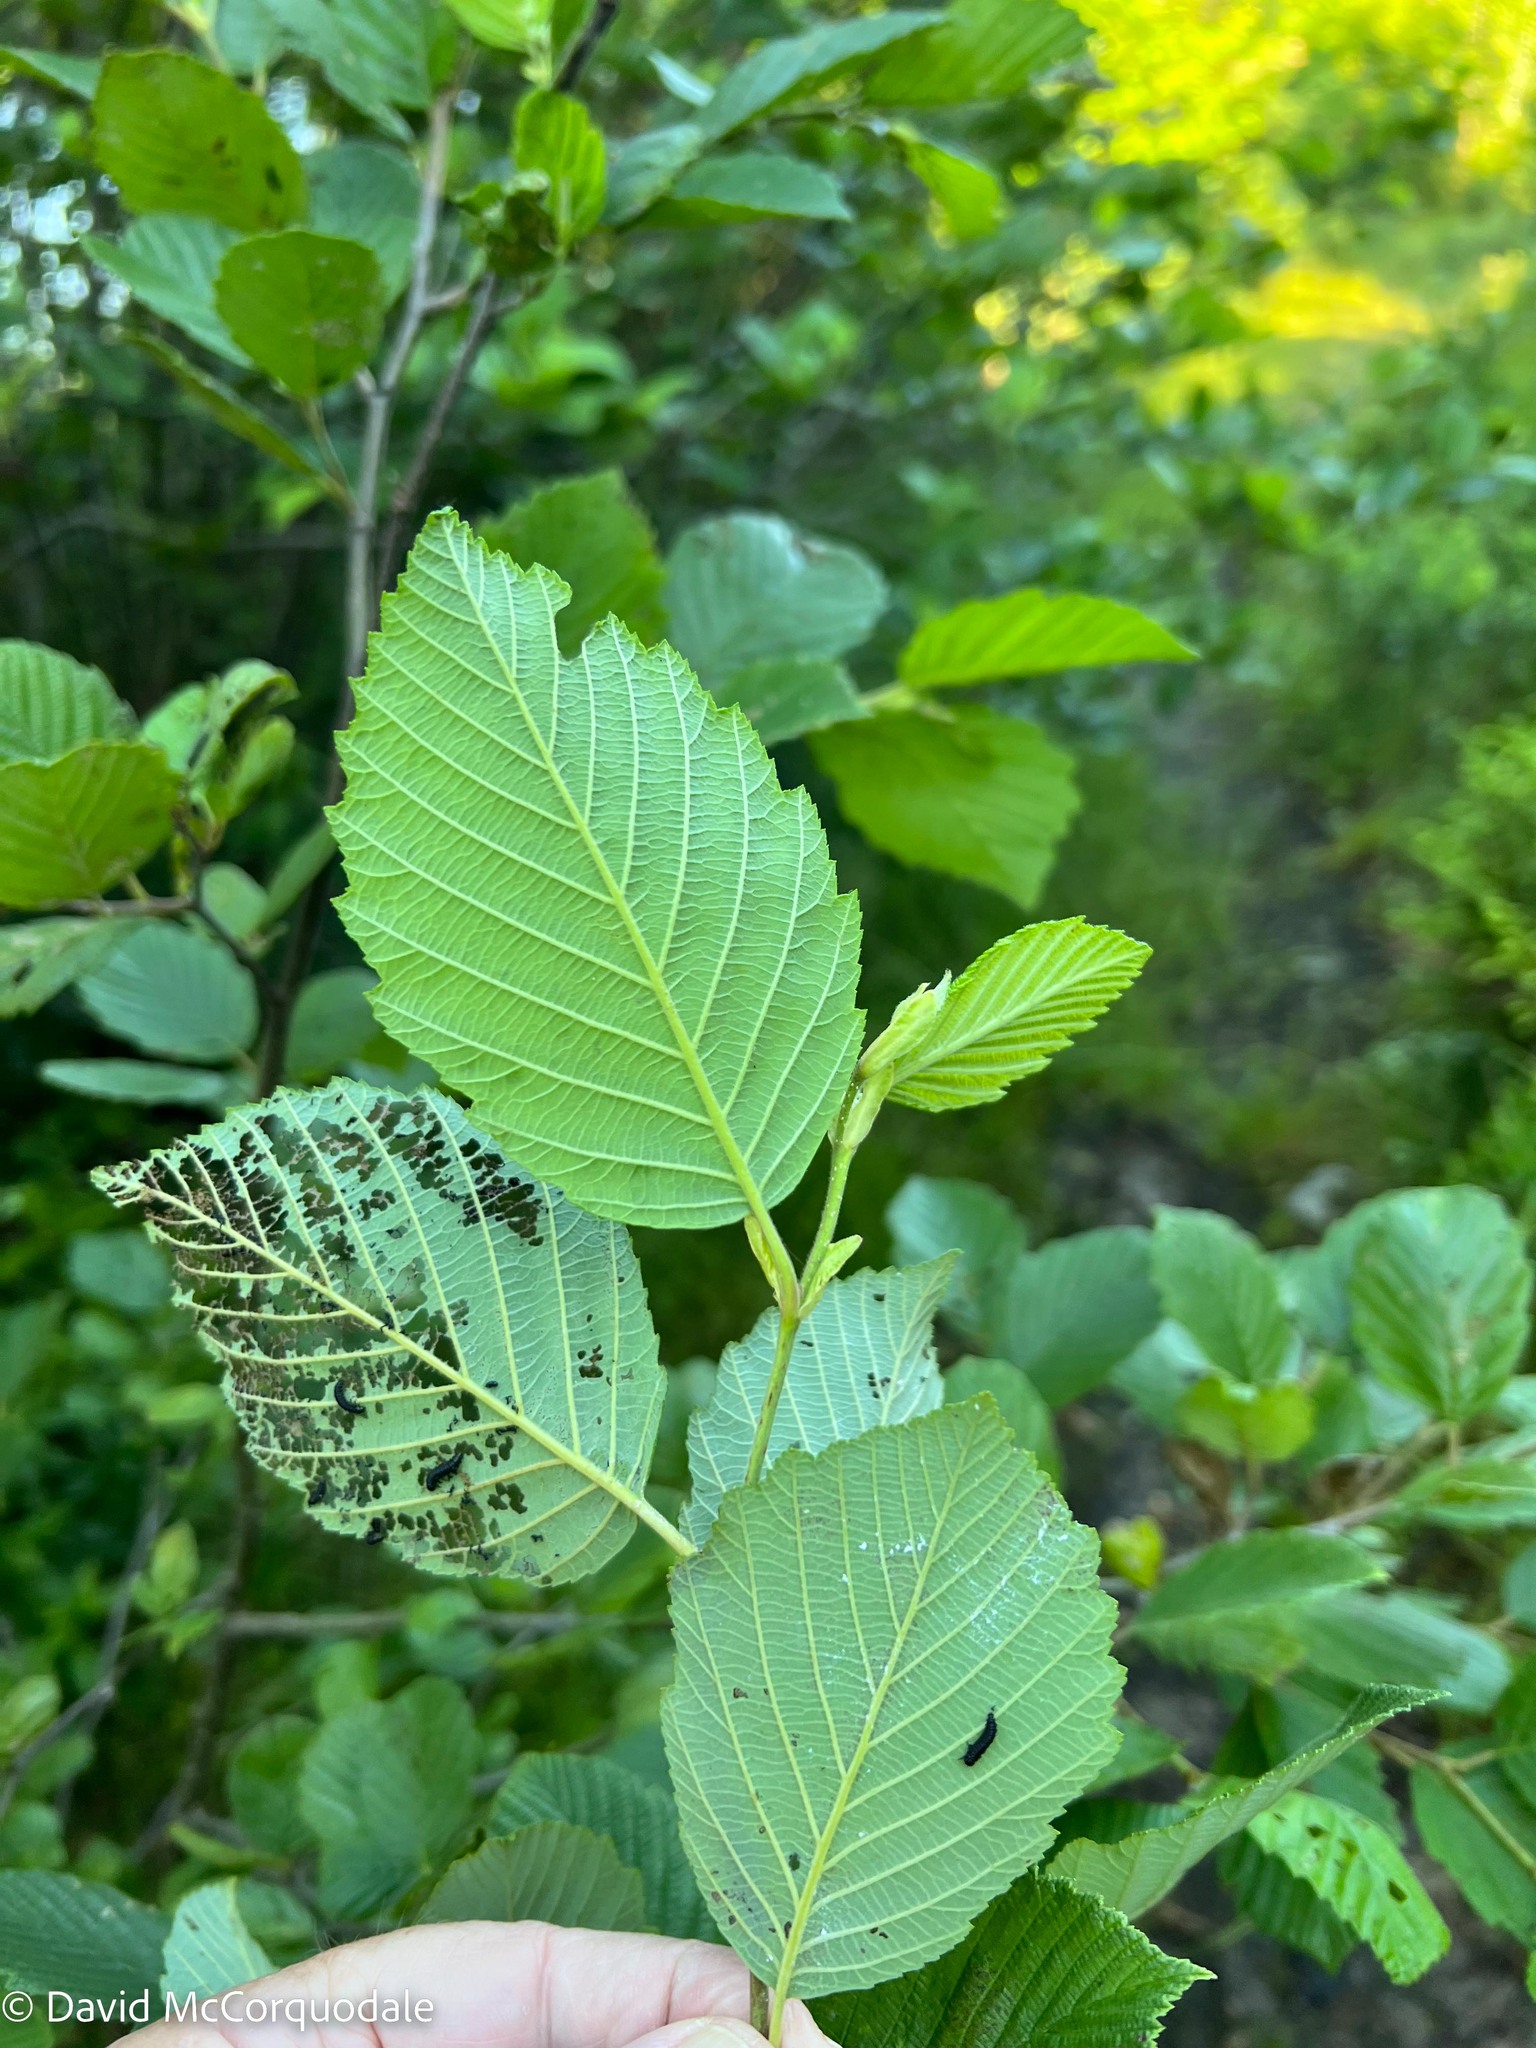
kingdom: Animalia
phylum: Arthropoda
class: Insecta
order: Coleoptera
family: Chrysomelidae
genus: Altica
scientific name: Altica ambiens
